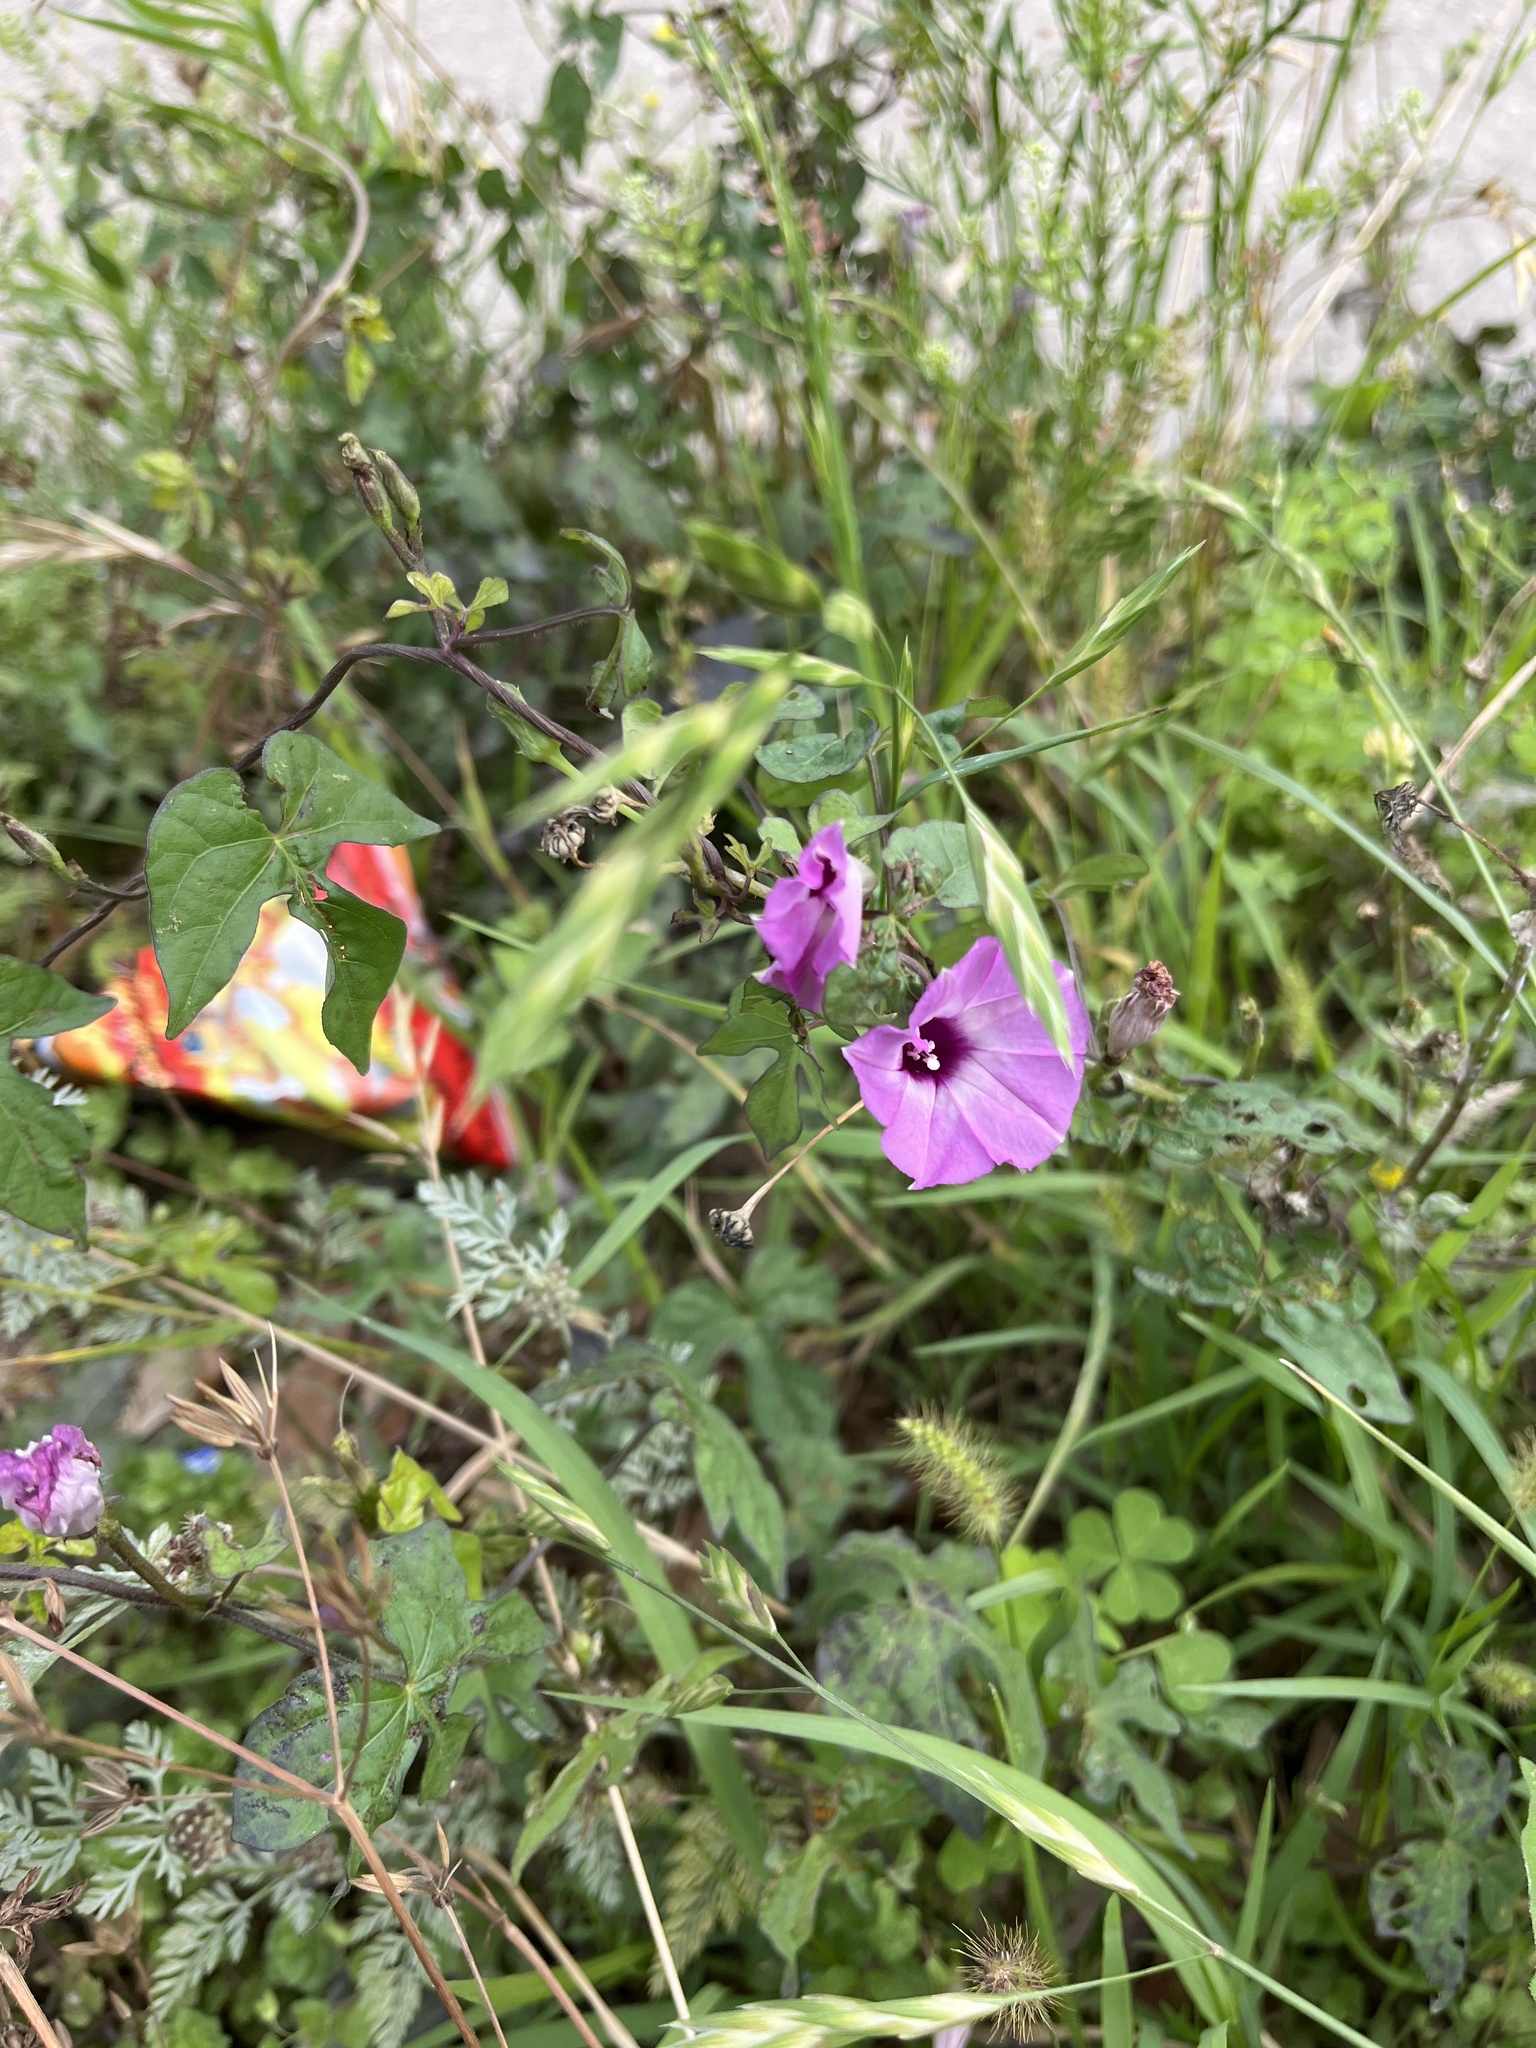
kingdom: Plantae
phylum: Tracheophyta
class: Magnoliopsida
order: Solanales
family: Convolvulaceae
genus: Ipomoea
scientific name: Ipomoea cordatotriloba
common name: Cotton morning glory
